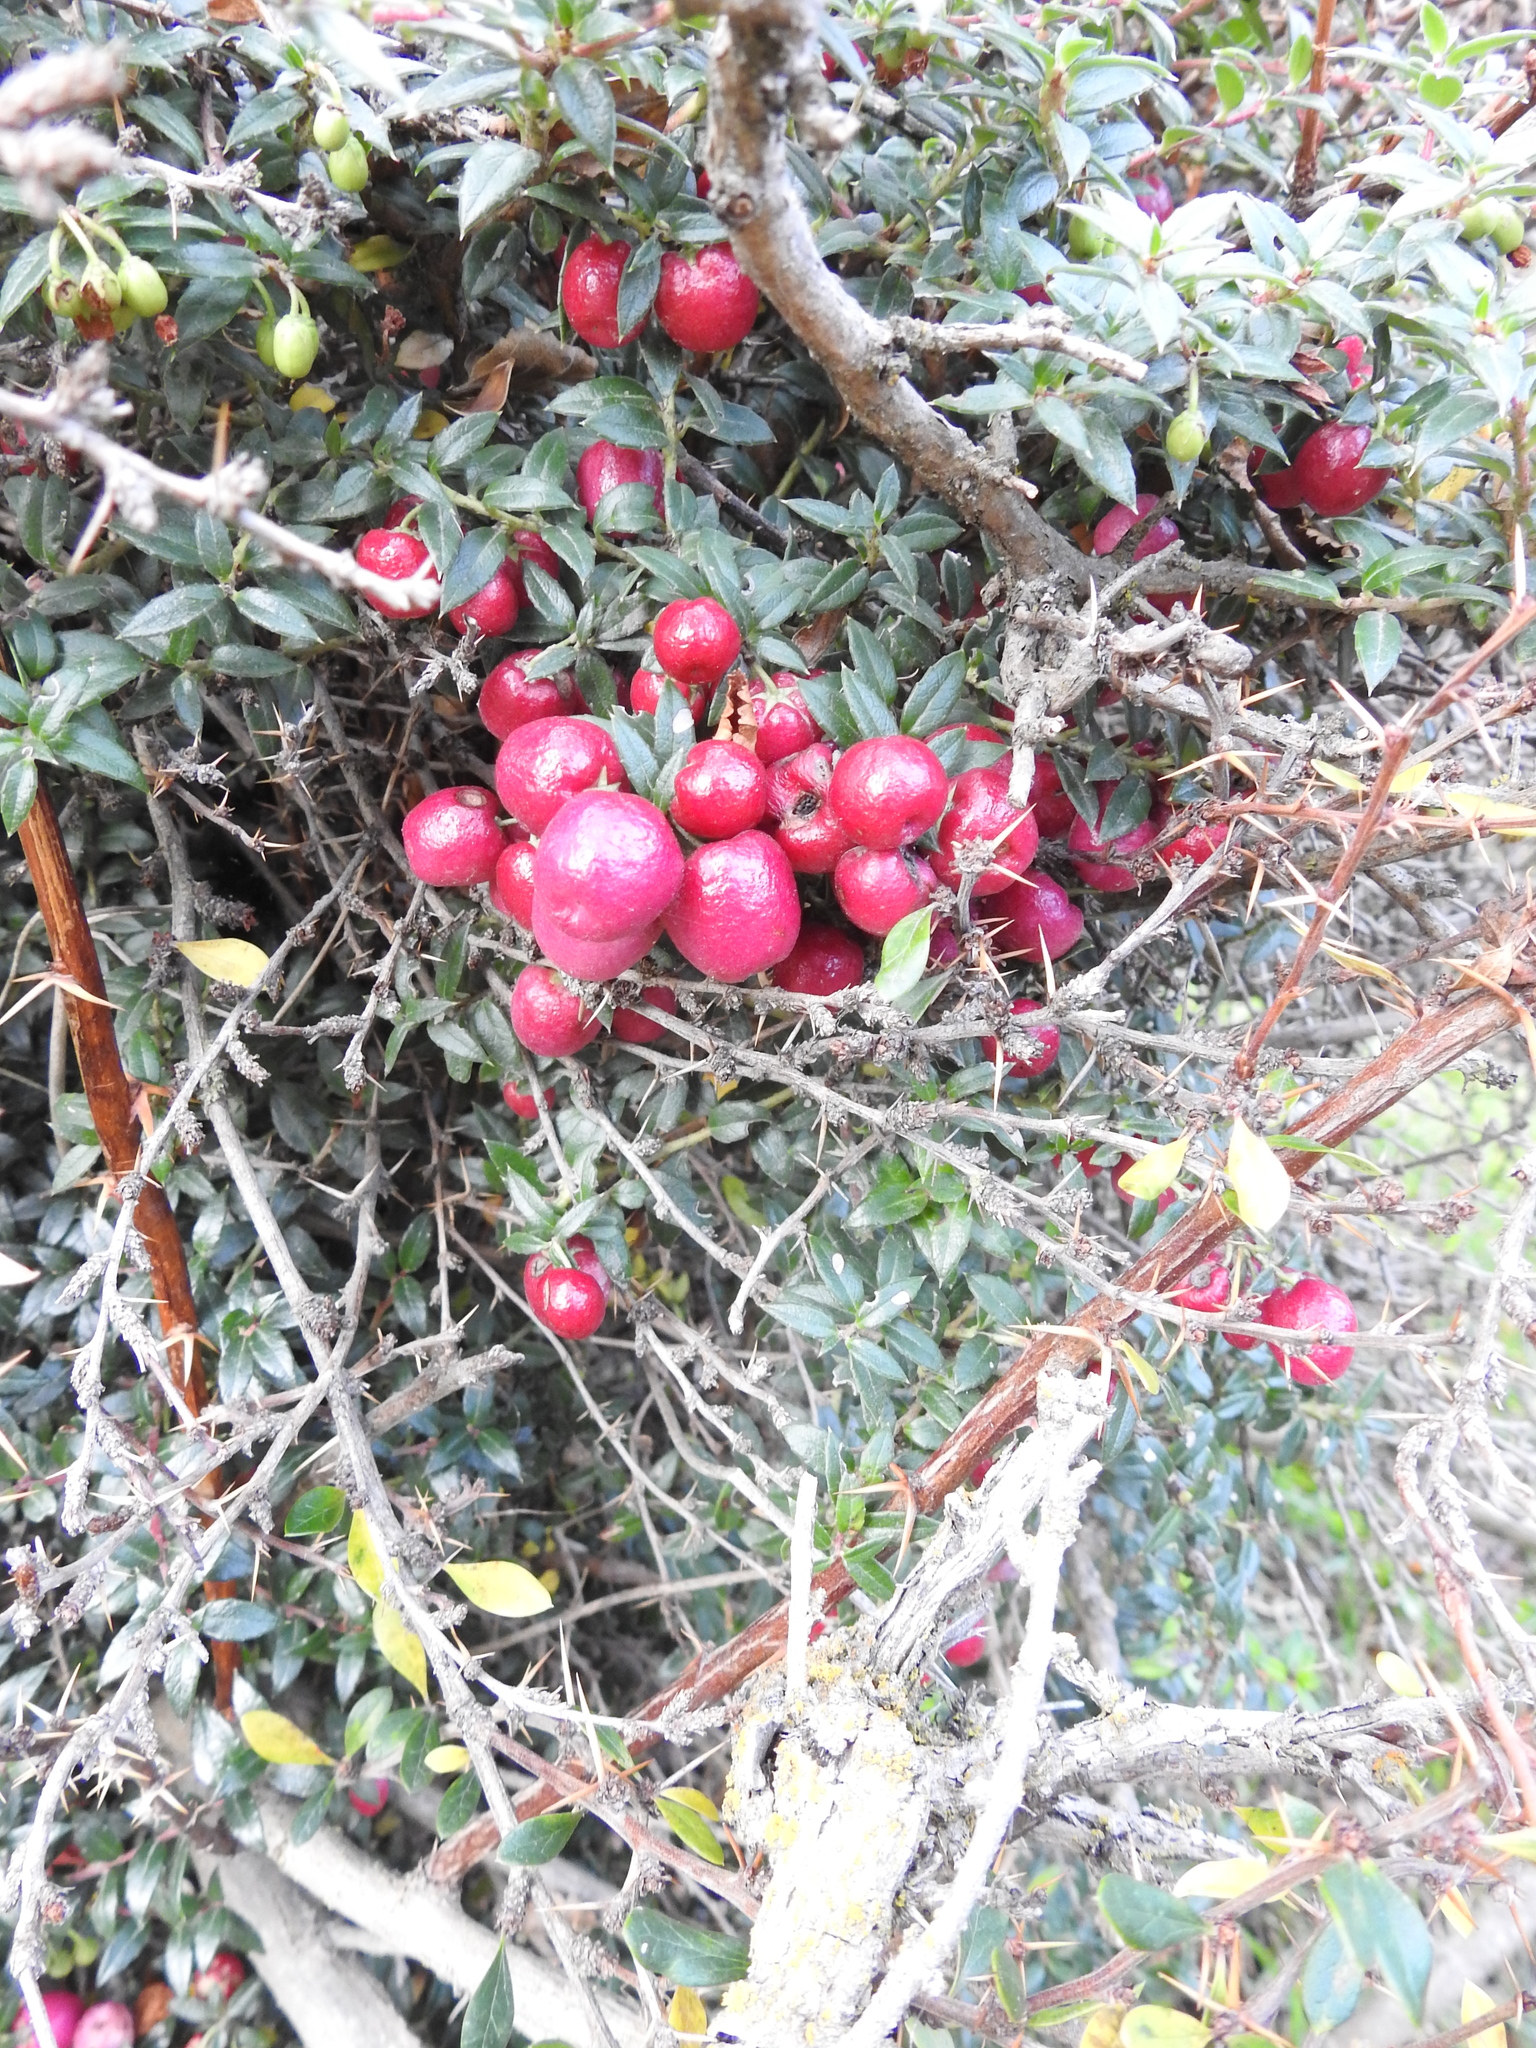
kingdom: Plantae
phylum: Tracheophyta
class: Magnoliopsida
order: Ericales
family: Ericaceae
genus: Gaultheria
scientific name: Gaultheria mucronata
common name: Prickly heath
